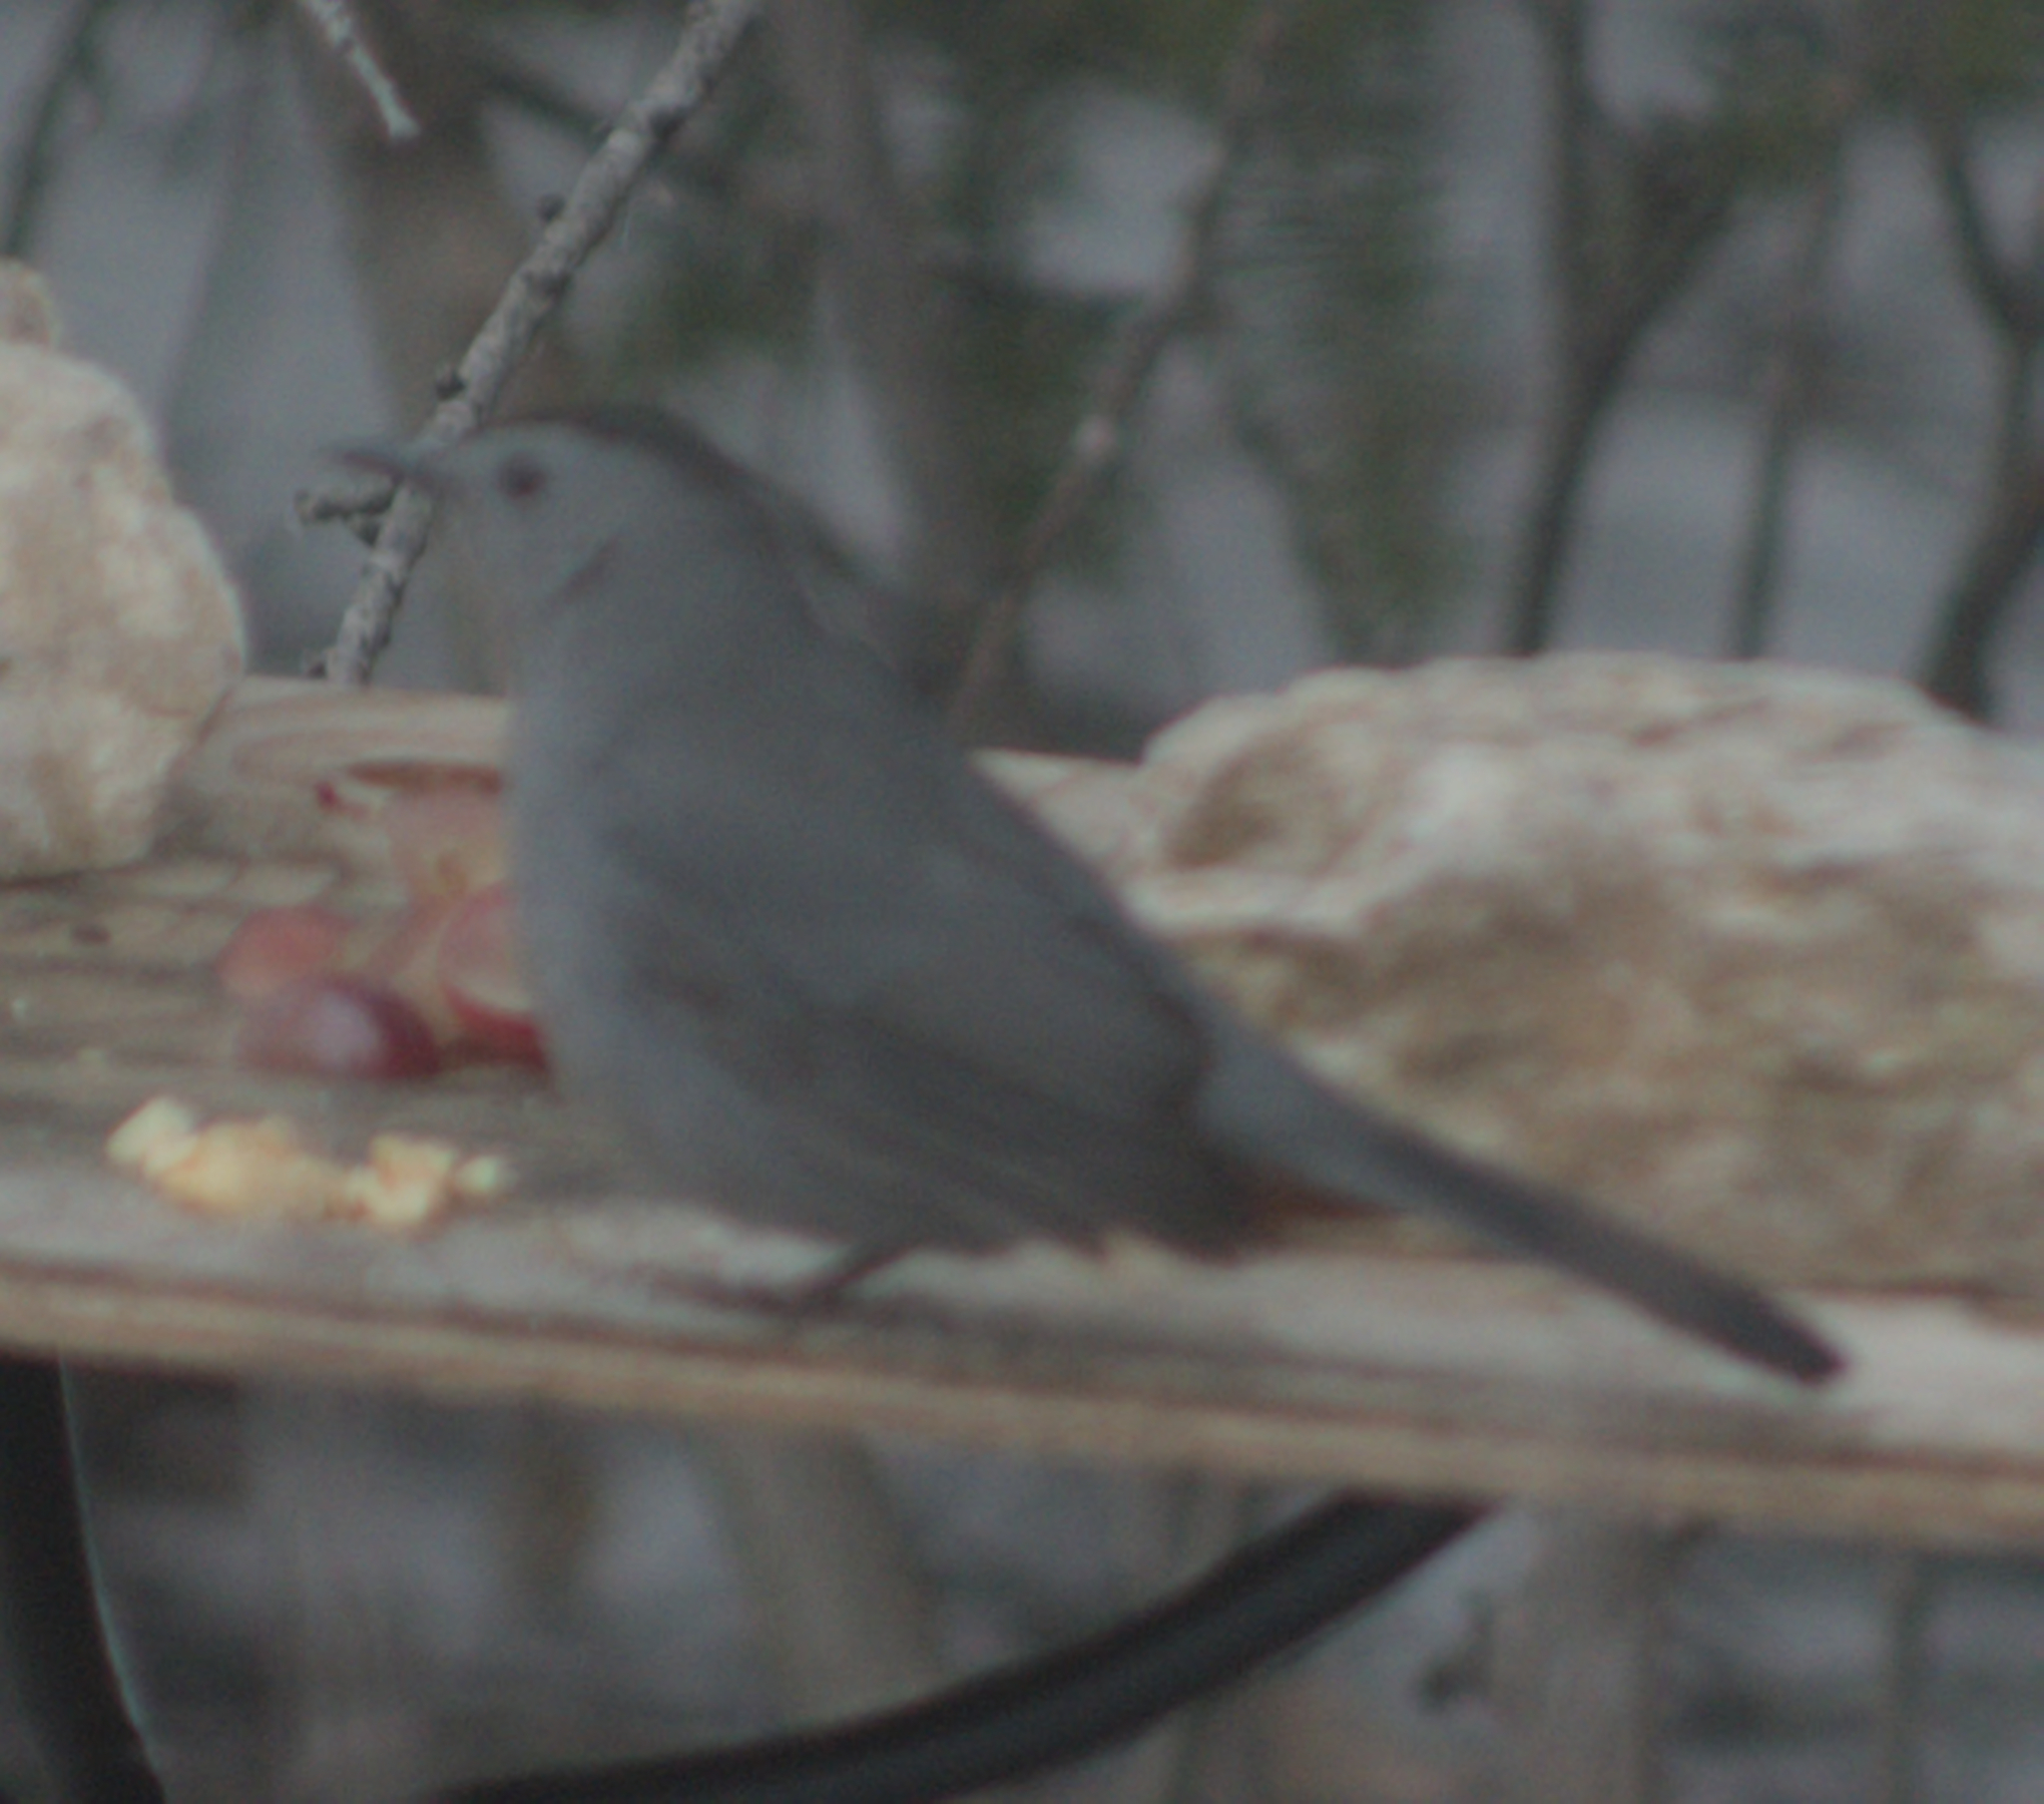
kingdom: Animalia
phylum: Chordata
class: Aves
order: Passeriformes
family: Mimidae
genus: Dumetella
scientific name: Dumetella carolinensis
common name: Gray catbird
